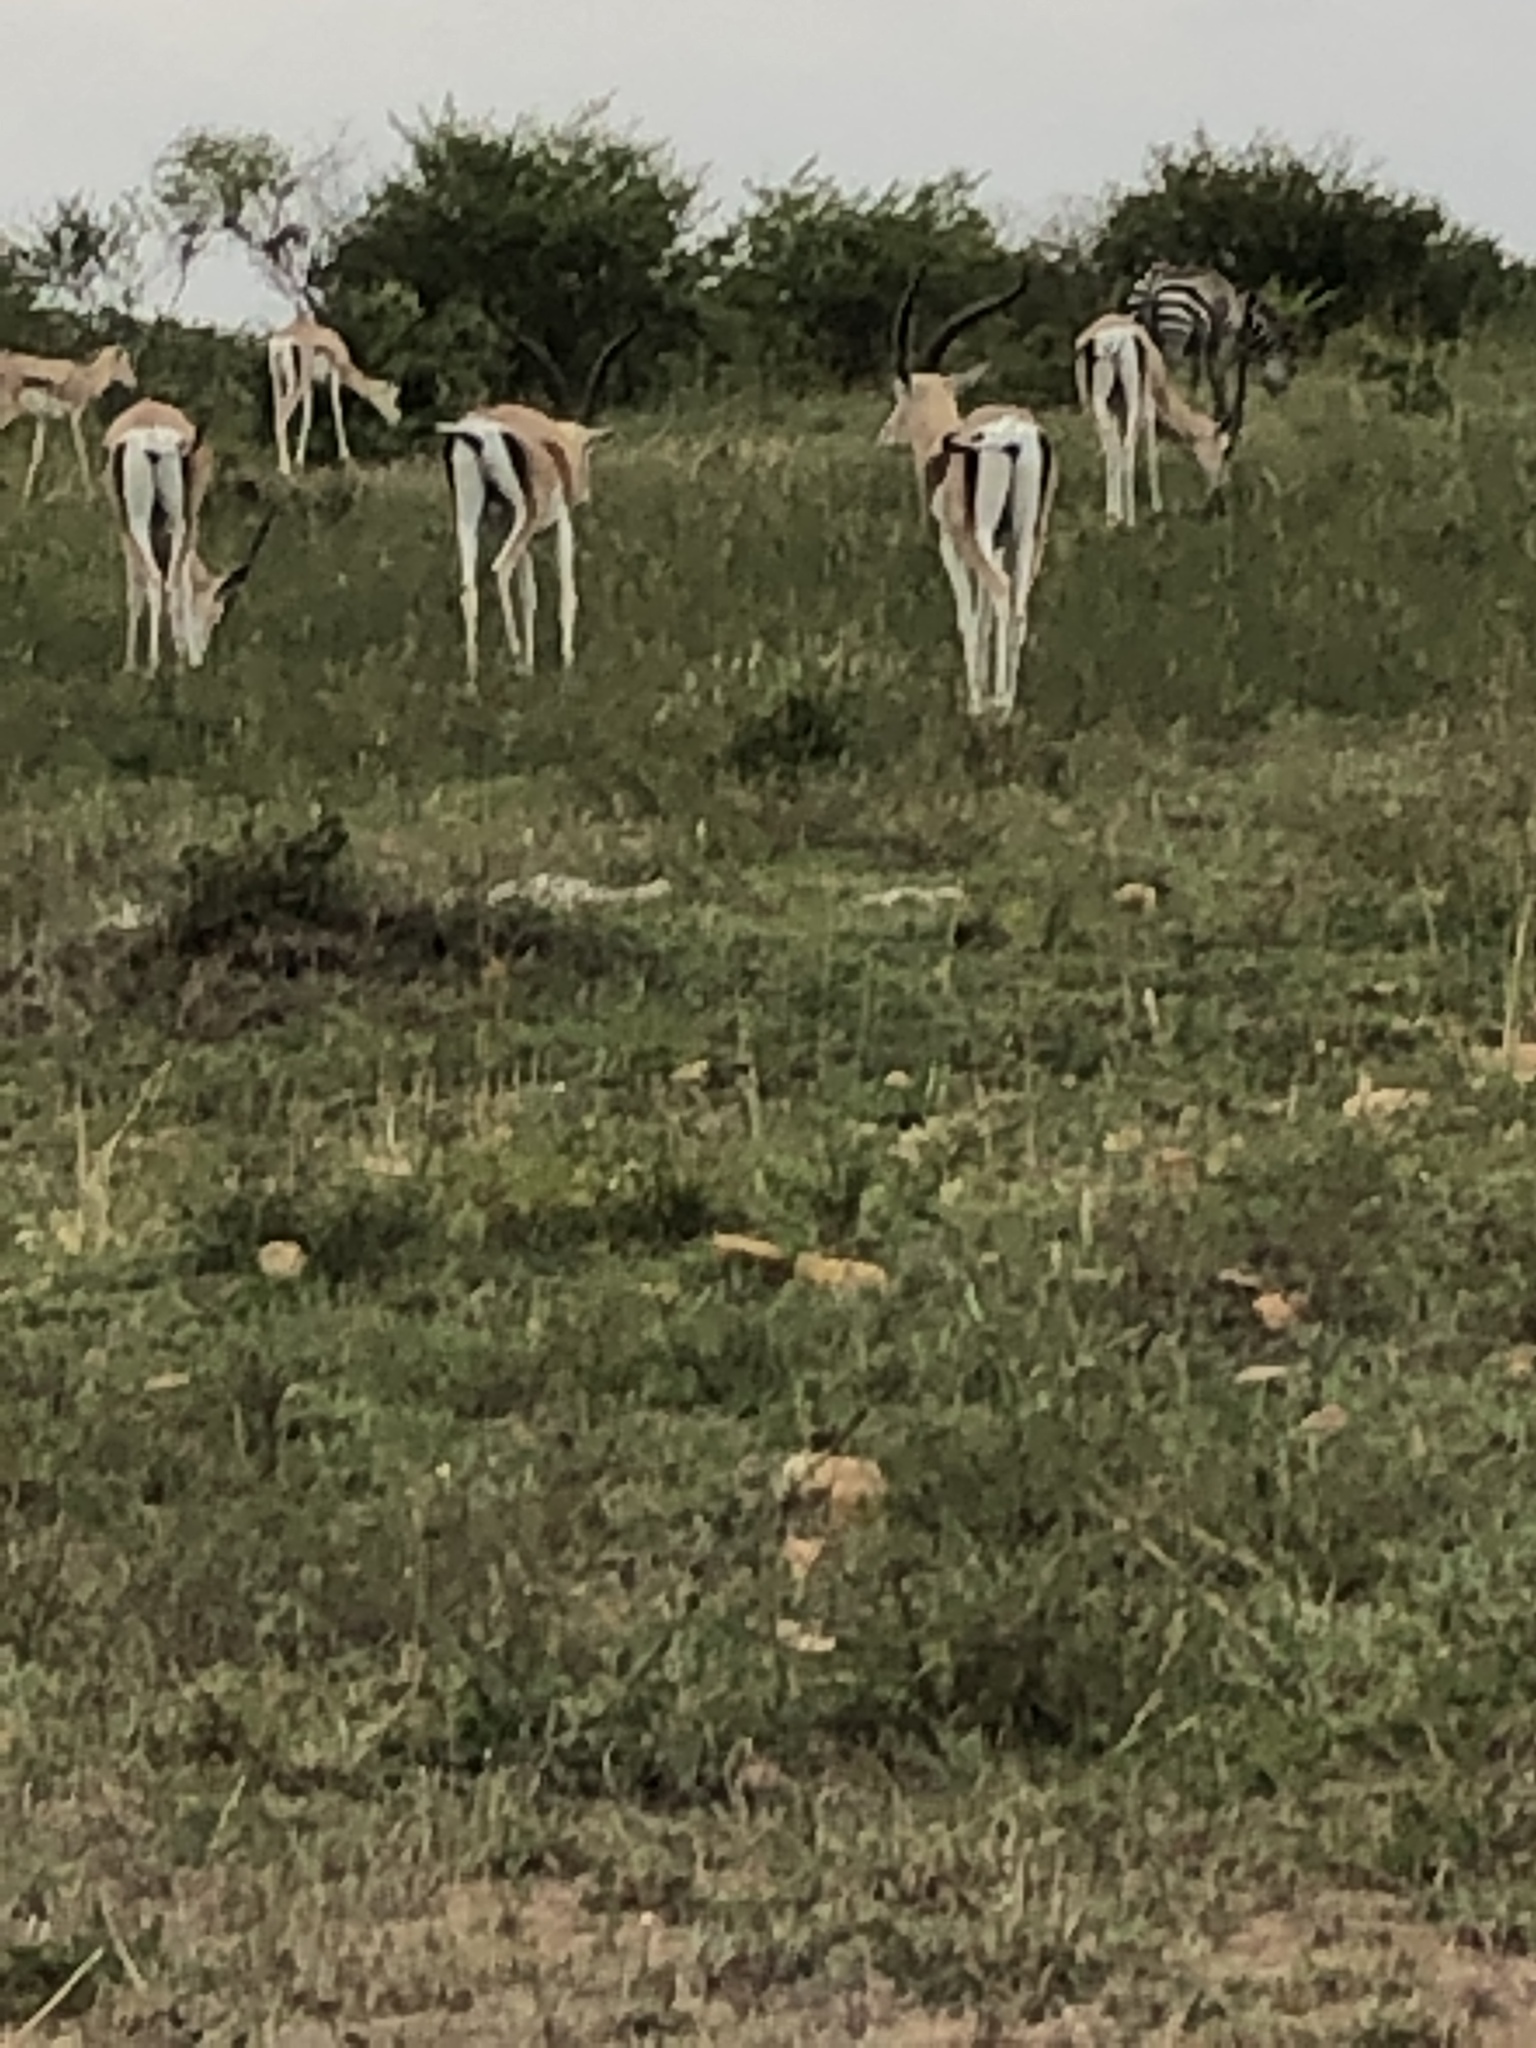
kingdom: Animalia
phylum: Chordata
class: Mammalia
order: Artiodactyla
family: Bovidae
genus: Nanger
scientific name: Nanger granti
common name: Grant's gazelle
